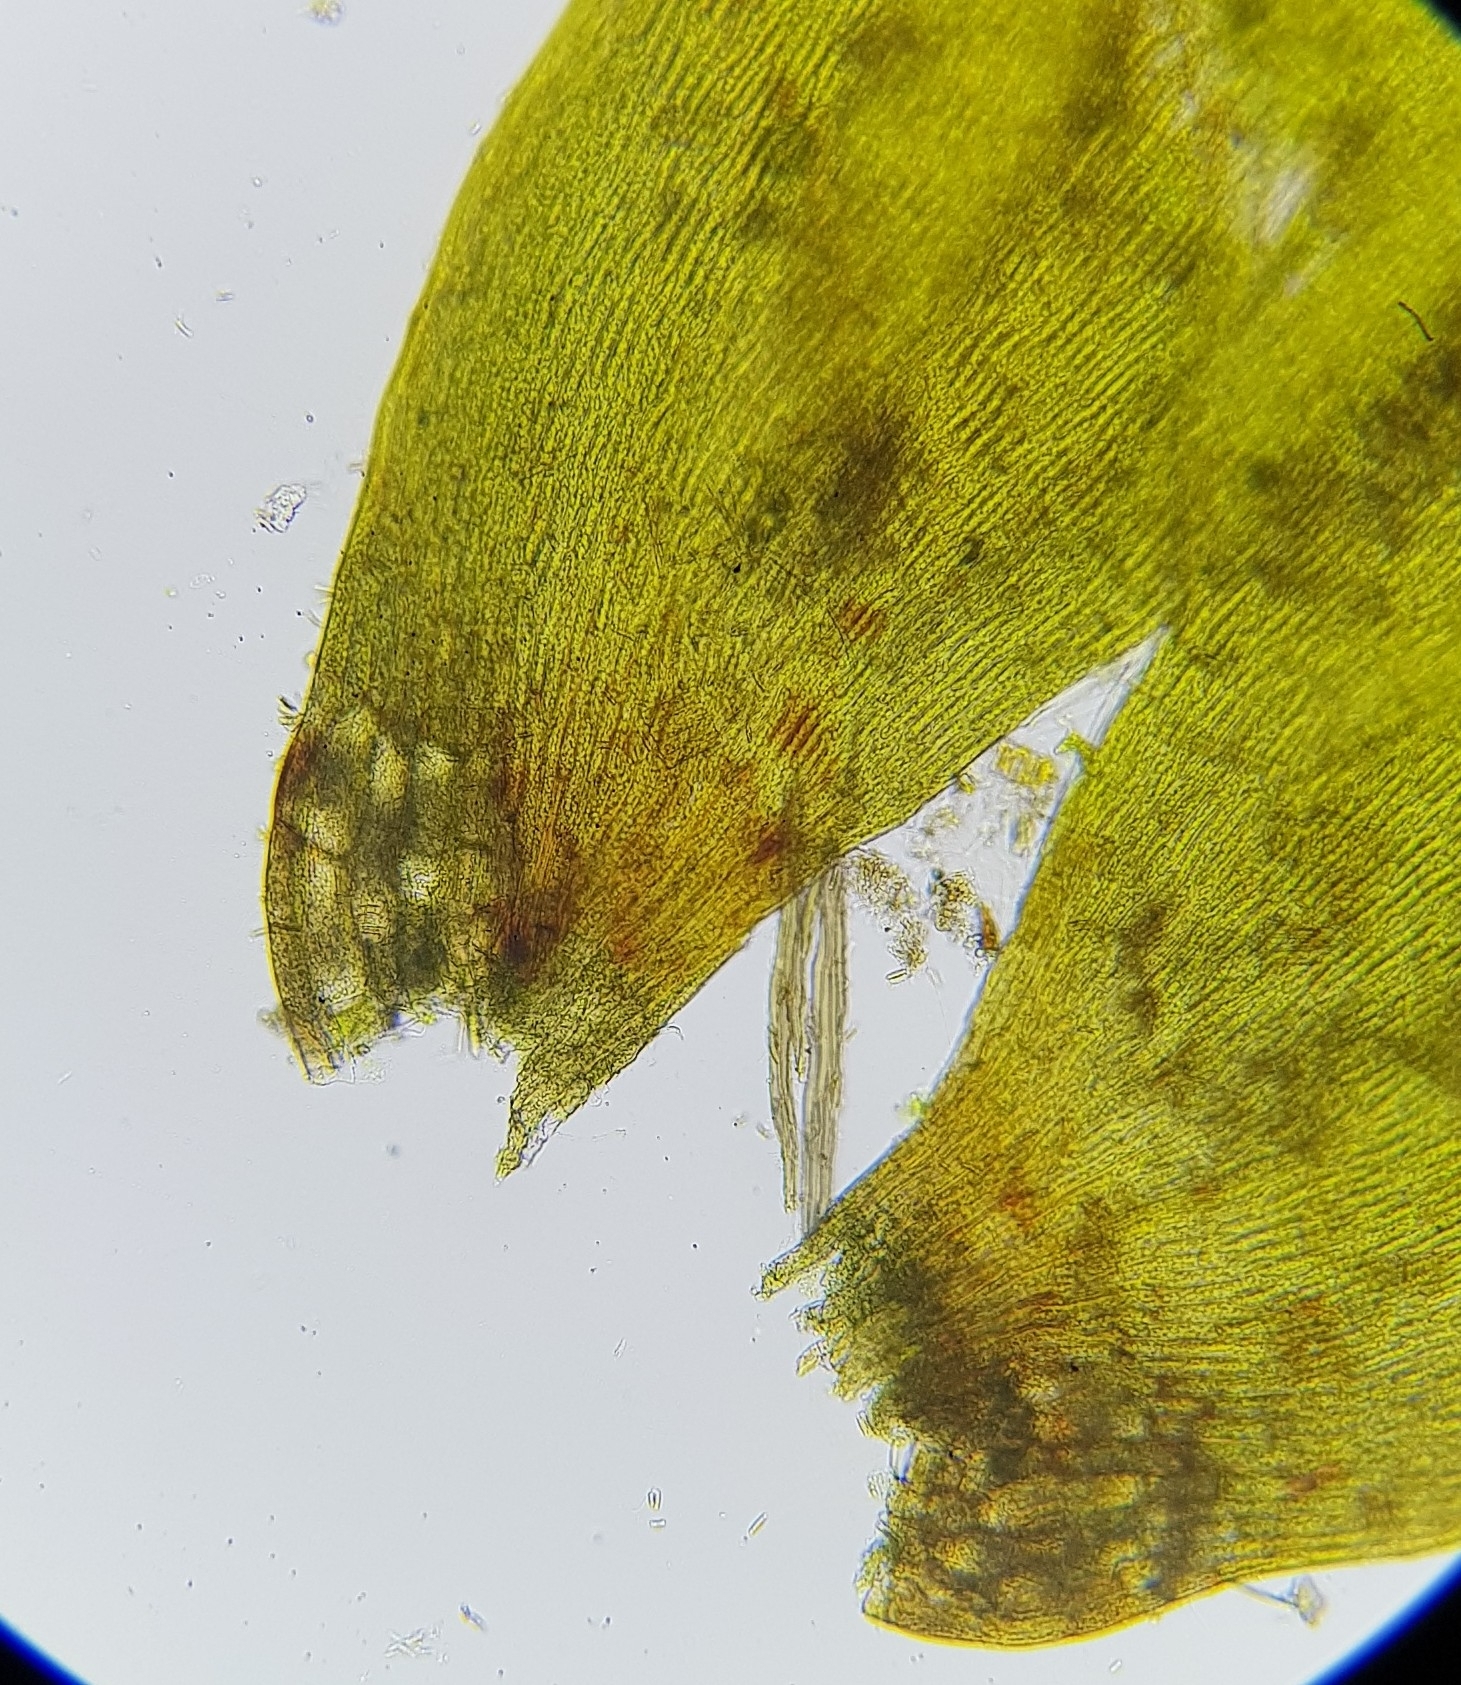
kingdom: Plantae
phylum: Bryophyta
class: Bryopsida
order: Hypnales
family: Fontinalaceae
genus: Fontinalis
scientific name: Fontinalis squamosa
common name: Alpine water-moss
